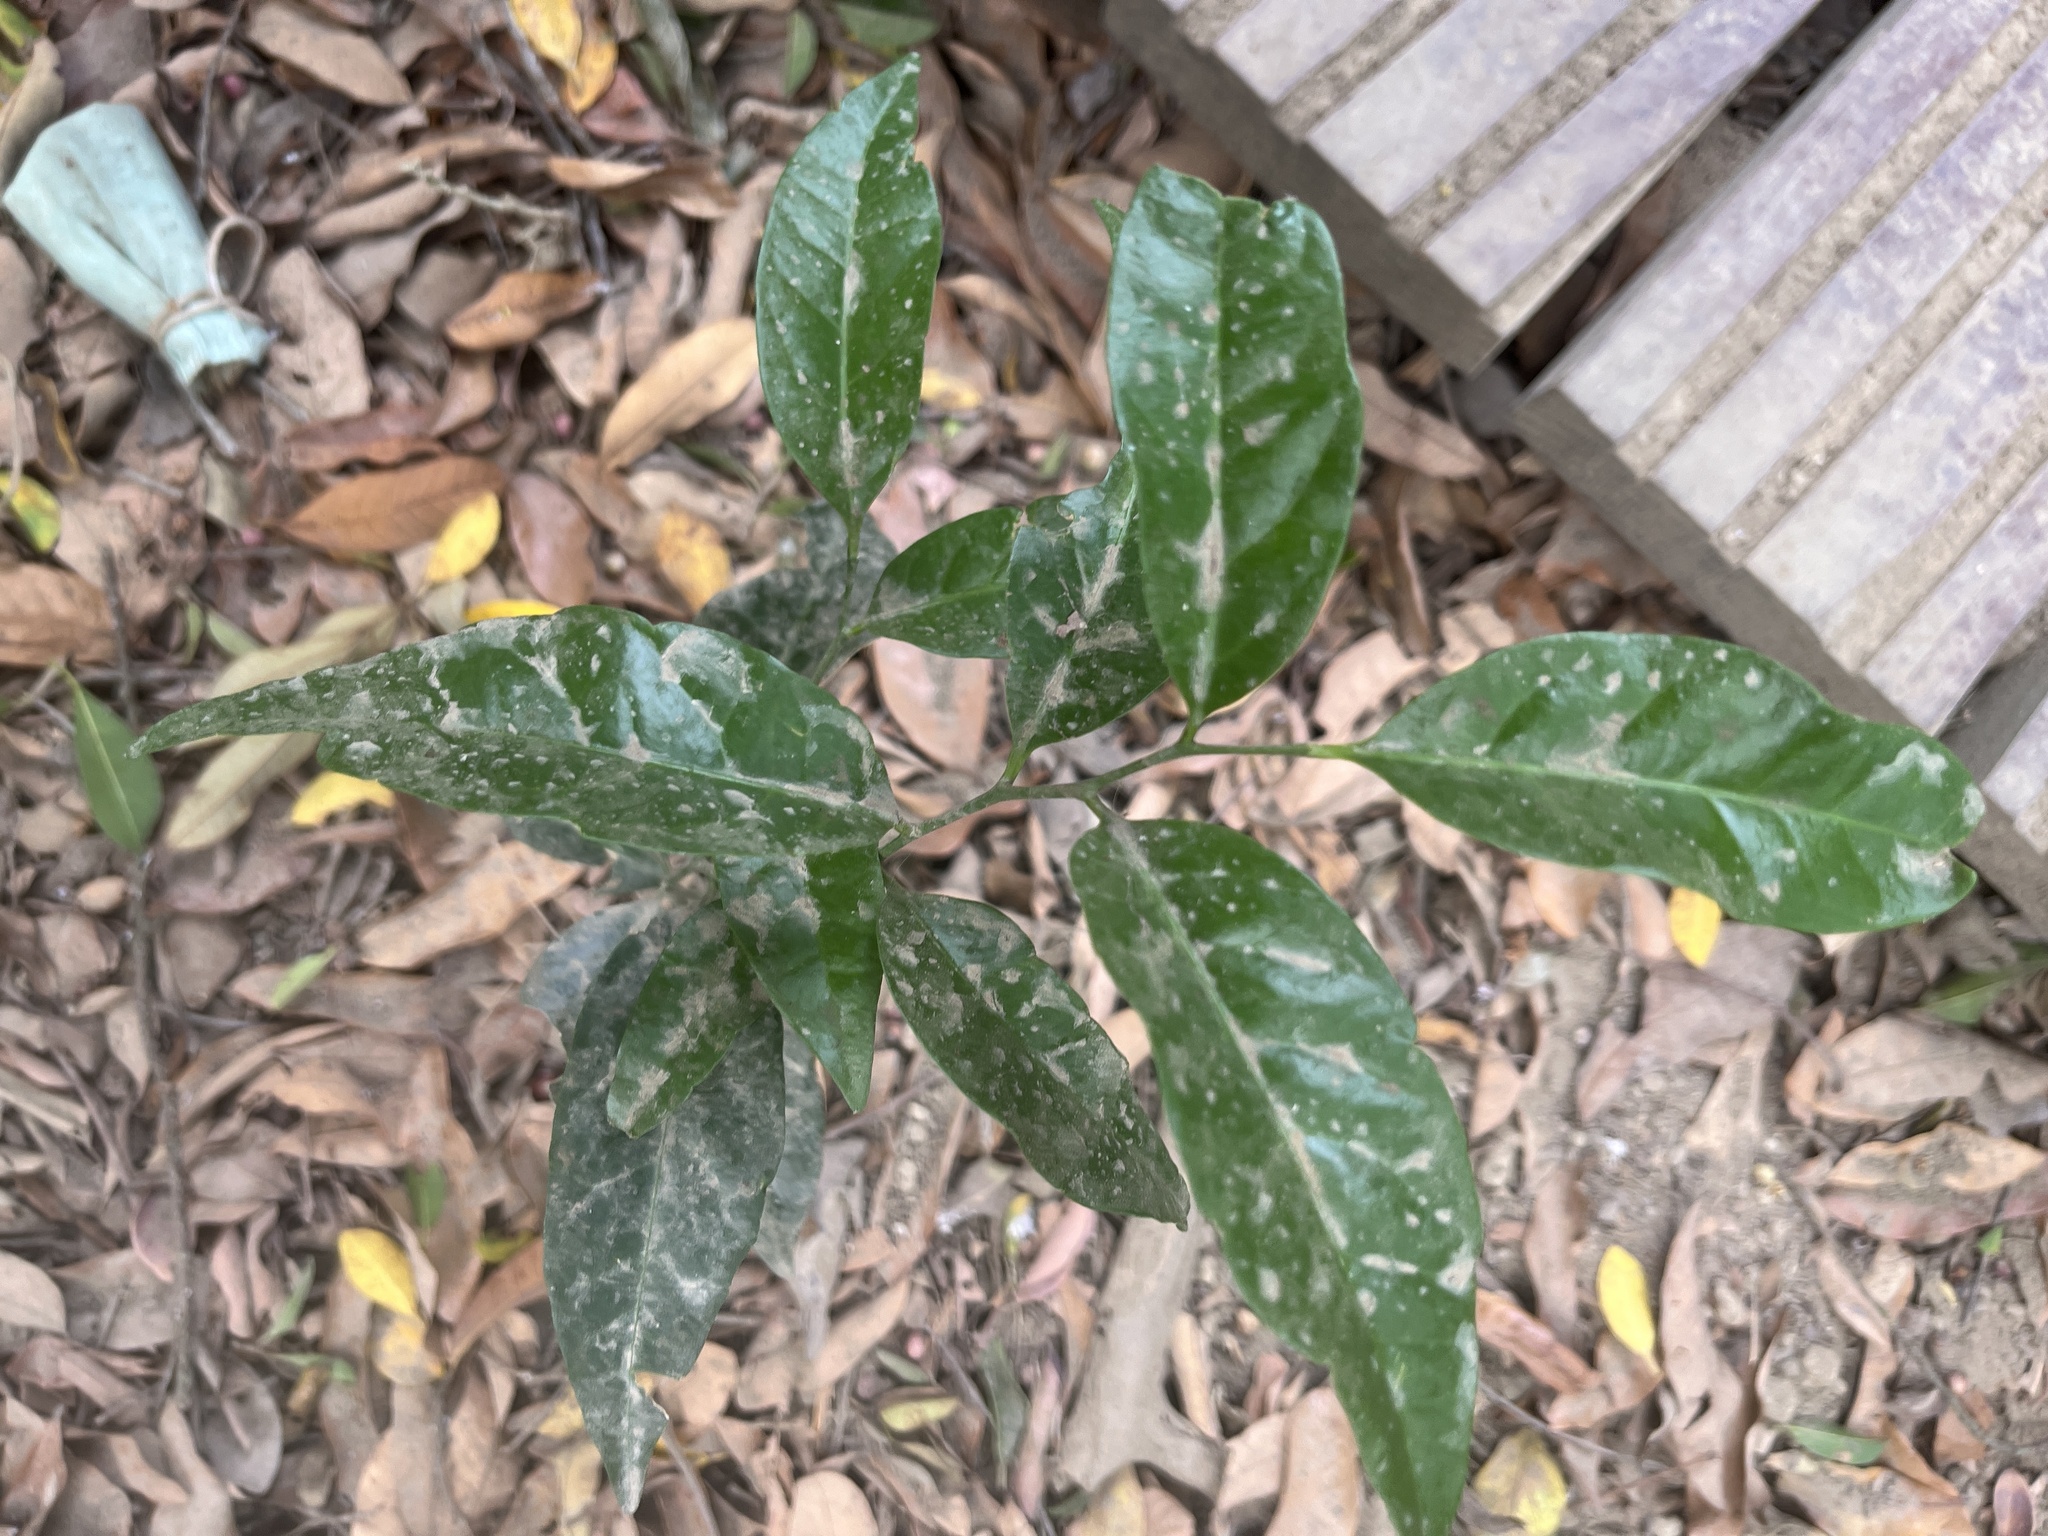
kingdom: Plantae
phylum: Tracheophyta
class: Magnoliopsida
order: Santalales
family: Opiliaceae
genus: Champereia
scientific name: Champereia manillana
